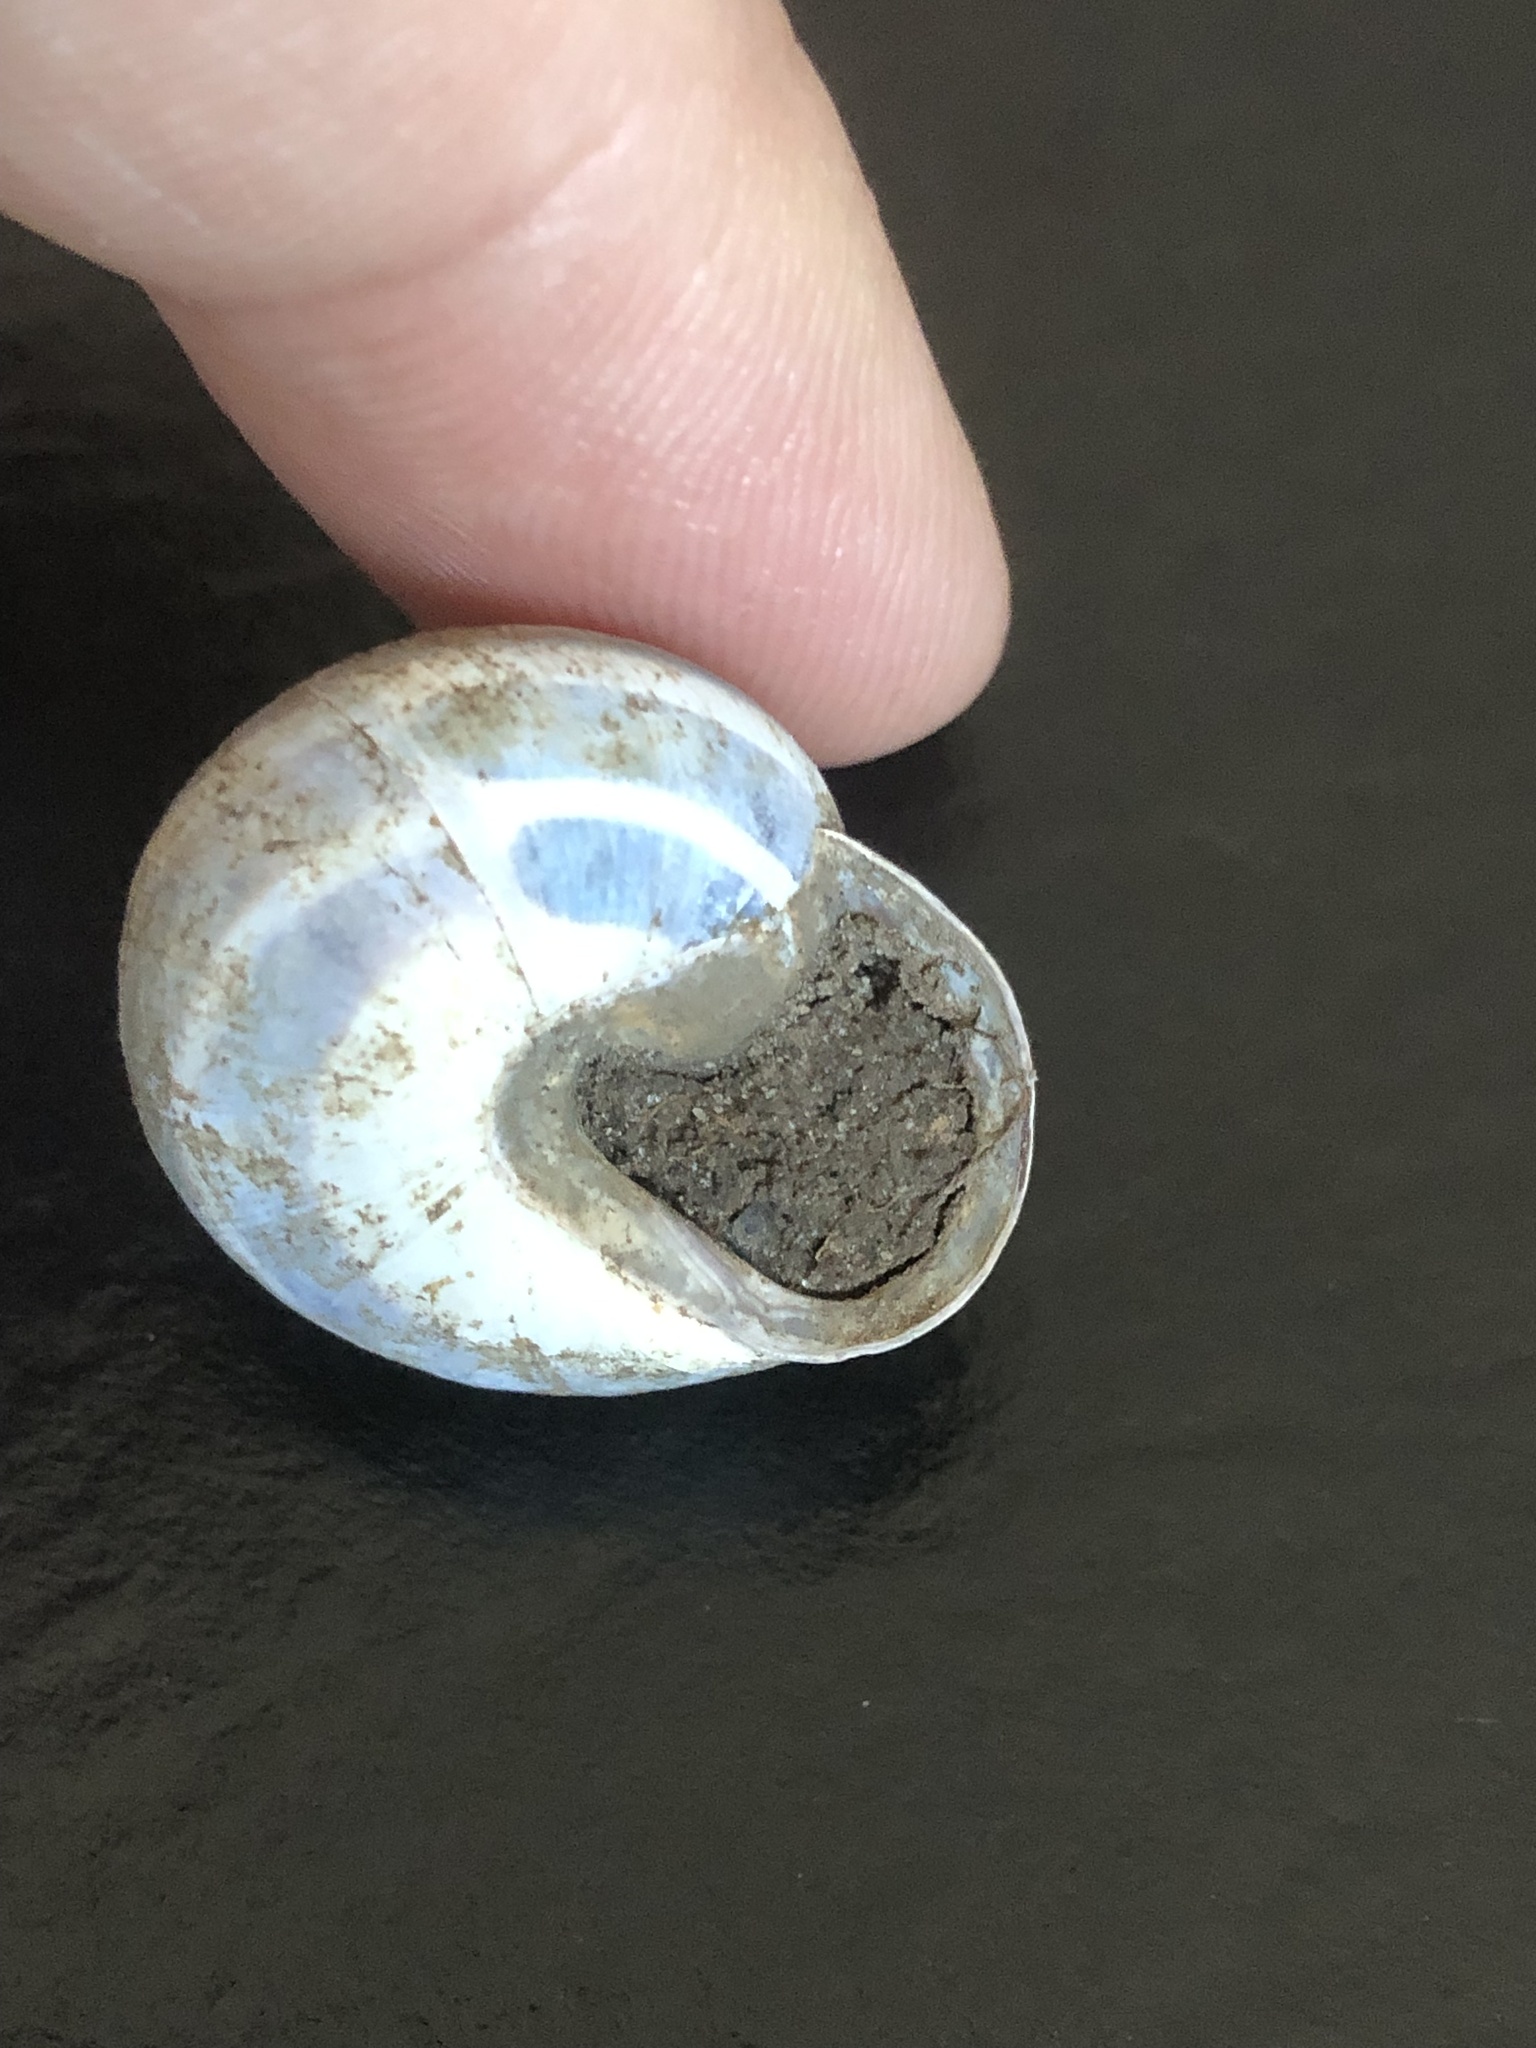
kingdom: Animalia
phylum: Mollusca
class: Gastropoda
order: Stylommatophora
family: Helicidae
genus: Cepaea
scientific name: Cepaea nemoralis
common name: Grovesnail
